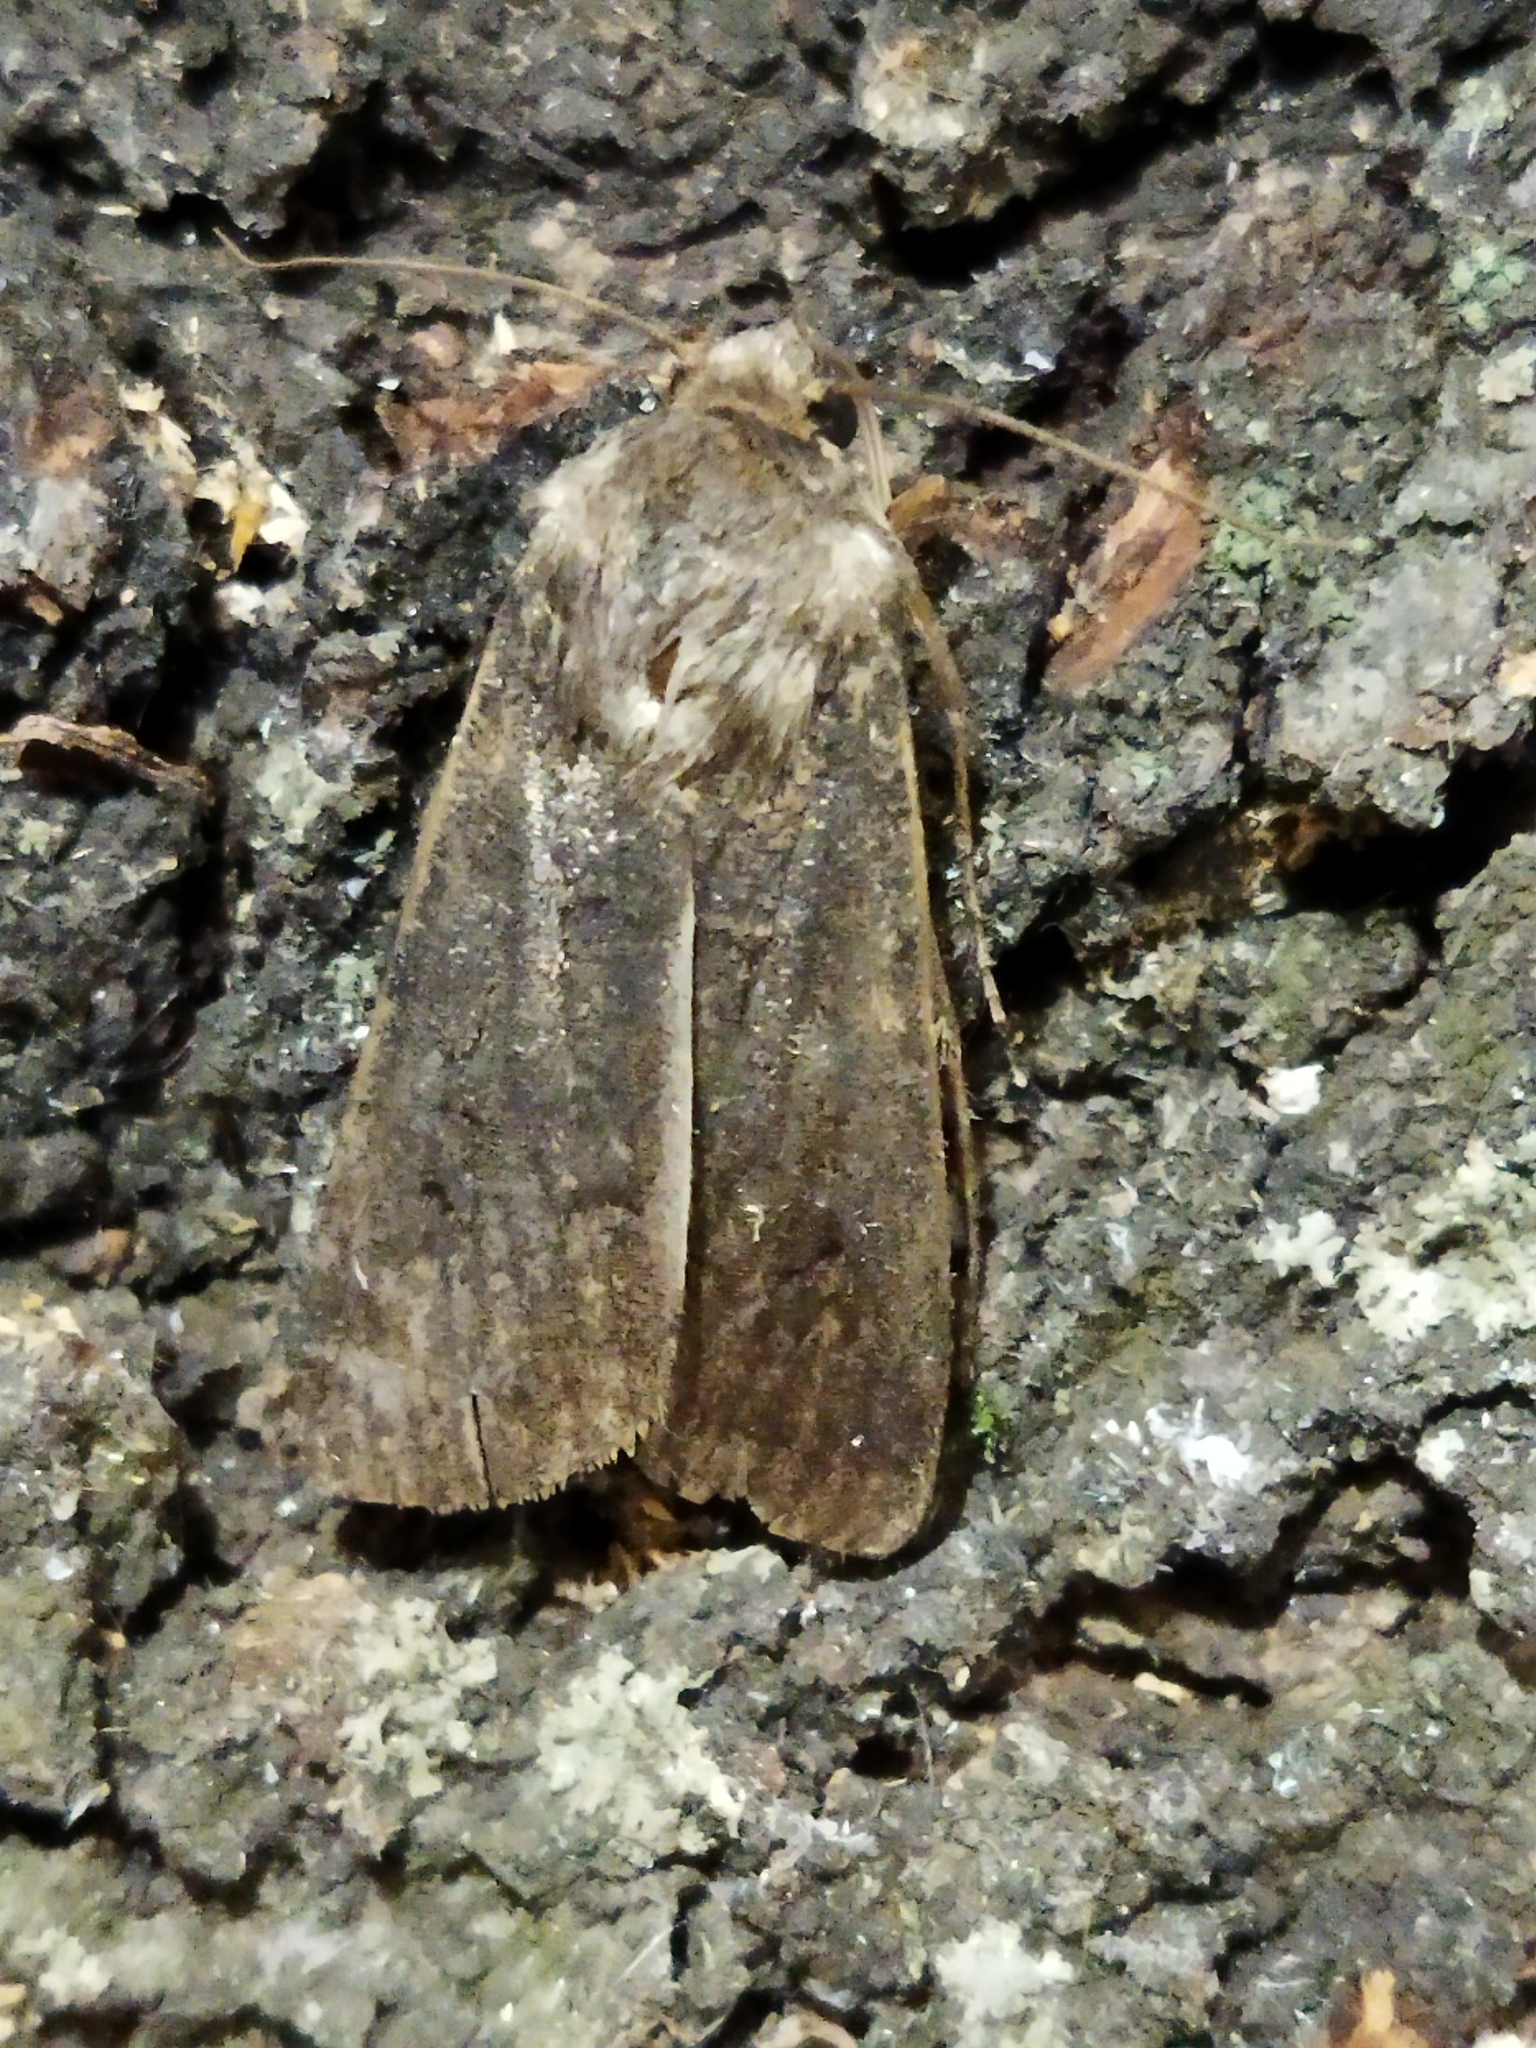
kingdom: Animalia
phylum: Arthropoda
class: Insecta
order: Lepidoptera
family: Noctuidae
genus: Agrotis
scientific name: Agrotis segetum
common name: Turnip moth
